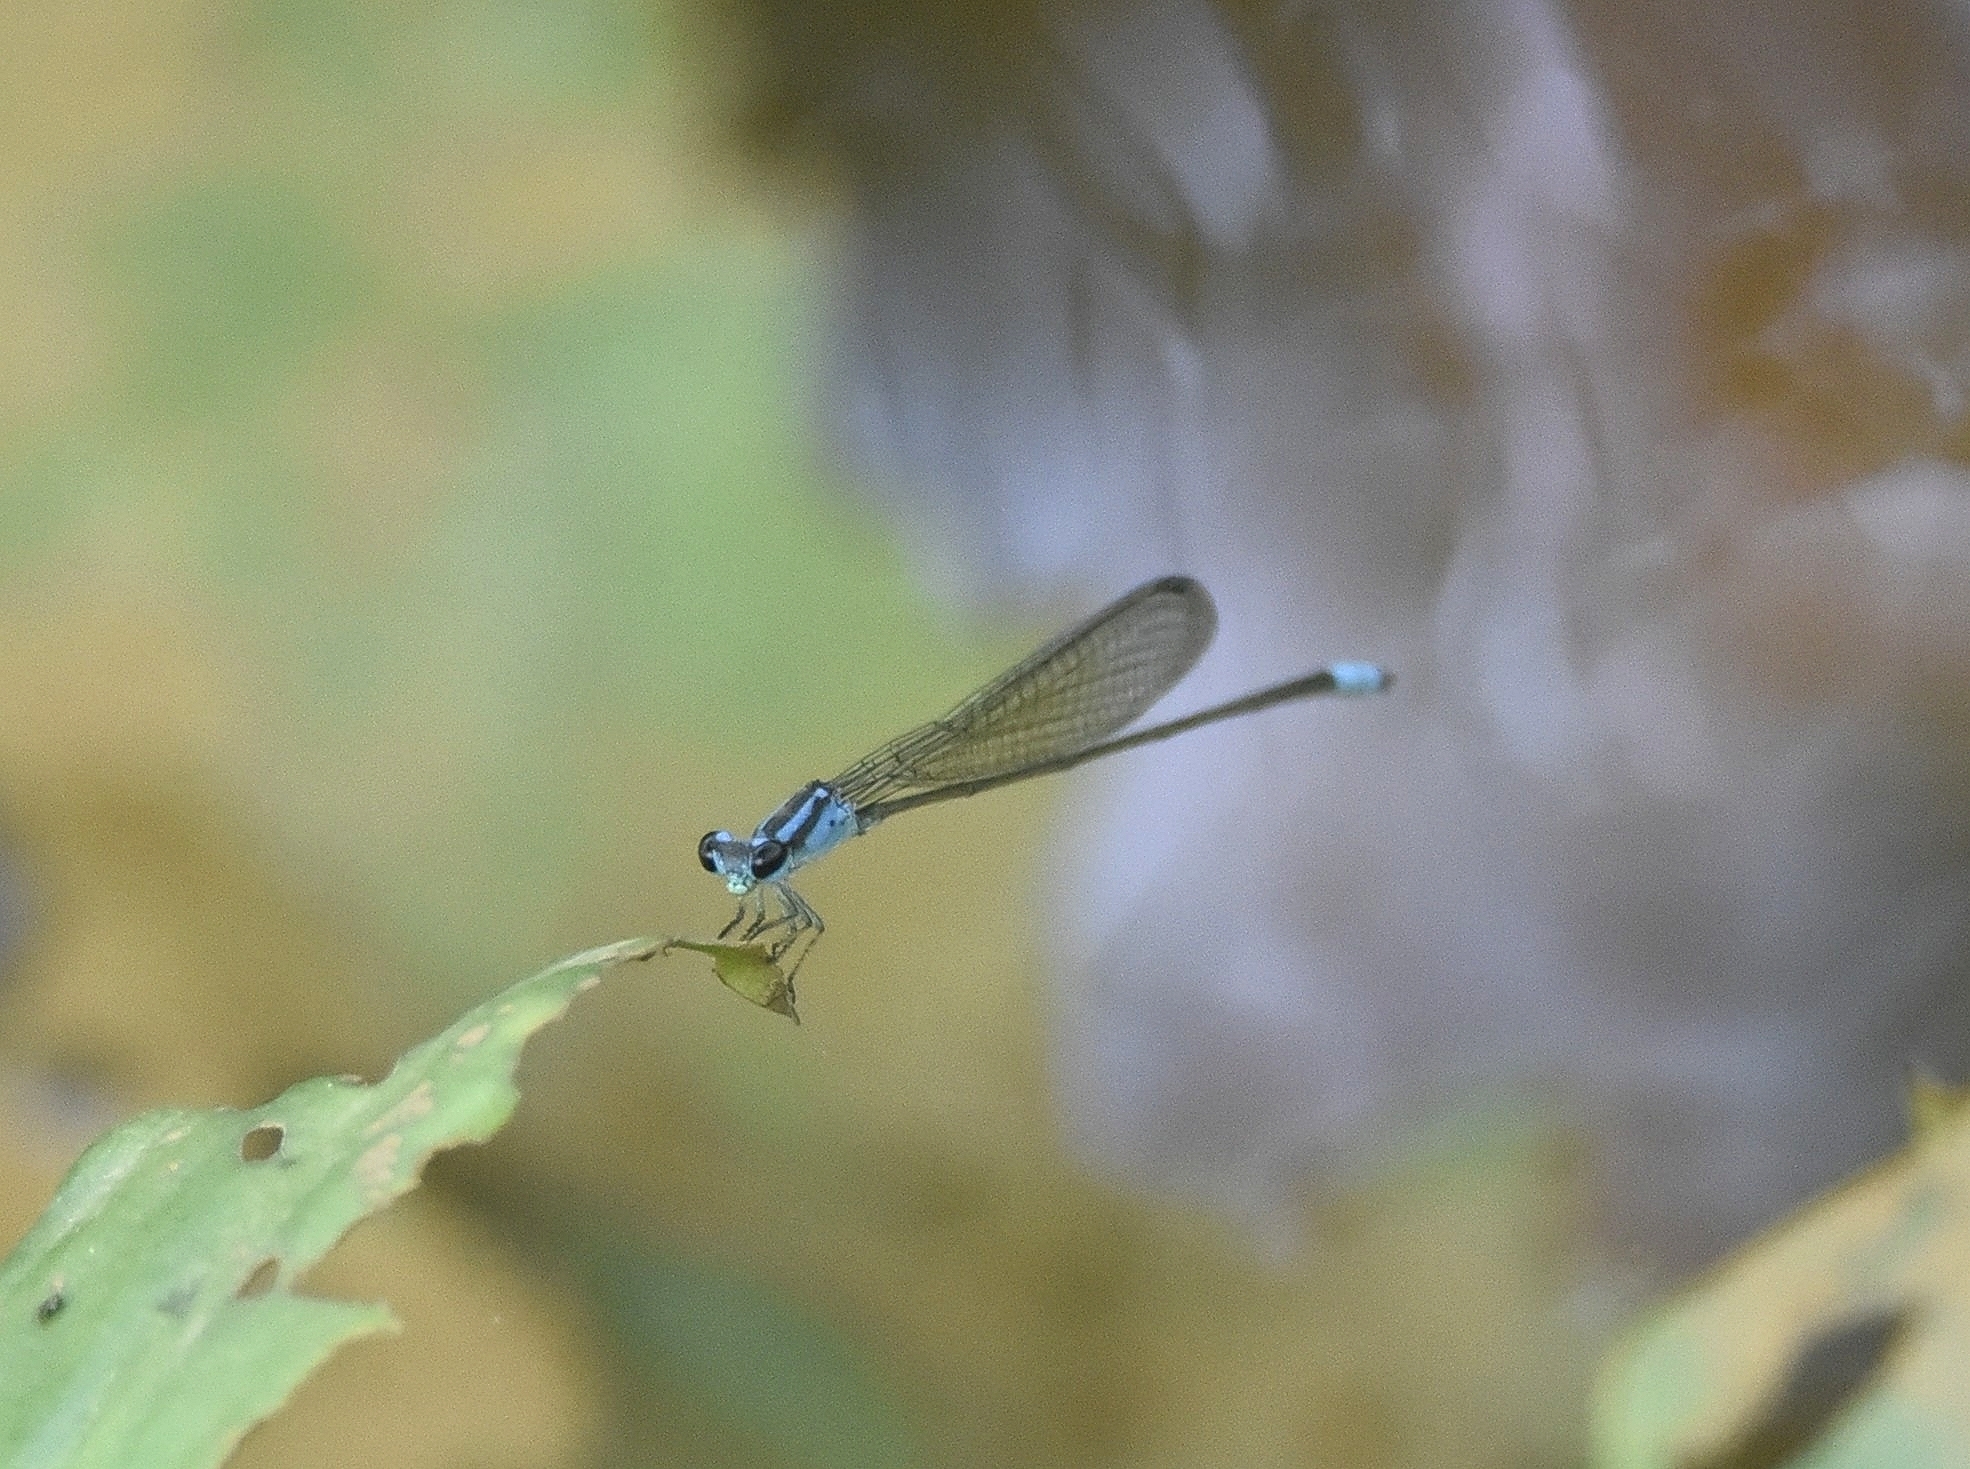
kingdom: Animalia
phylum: Arthropoda
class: Insecta
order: Odonata
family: Coenagrionidae
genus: Archibasis
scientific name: Archibasis oscillans
